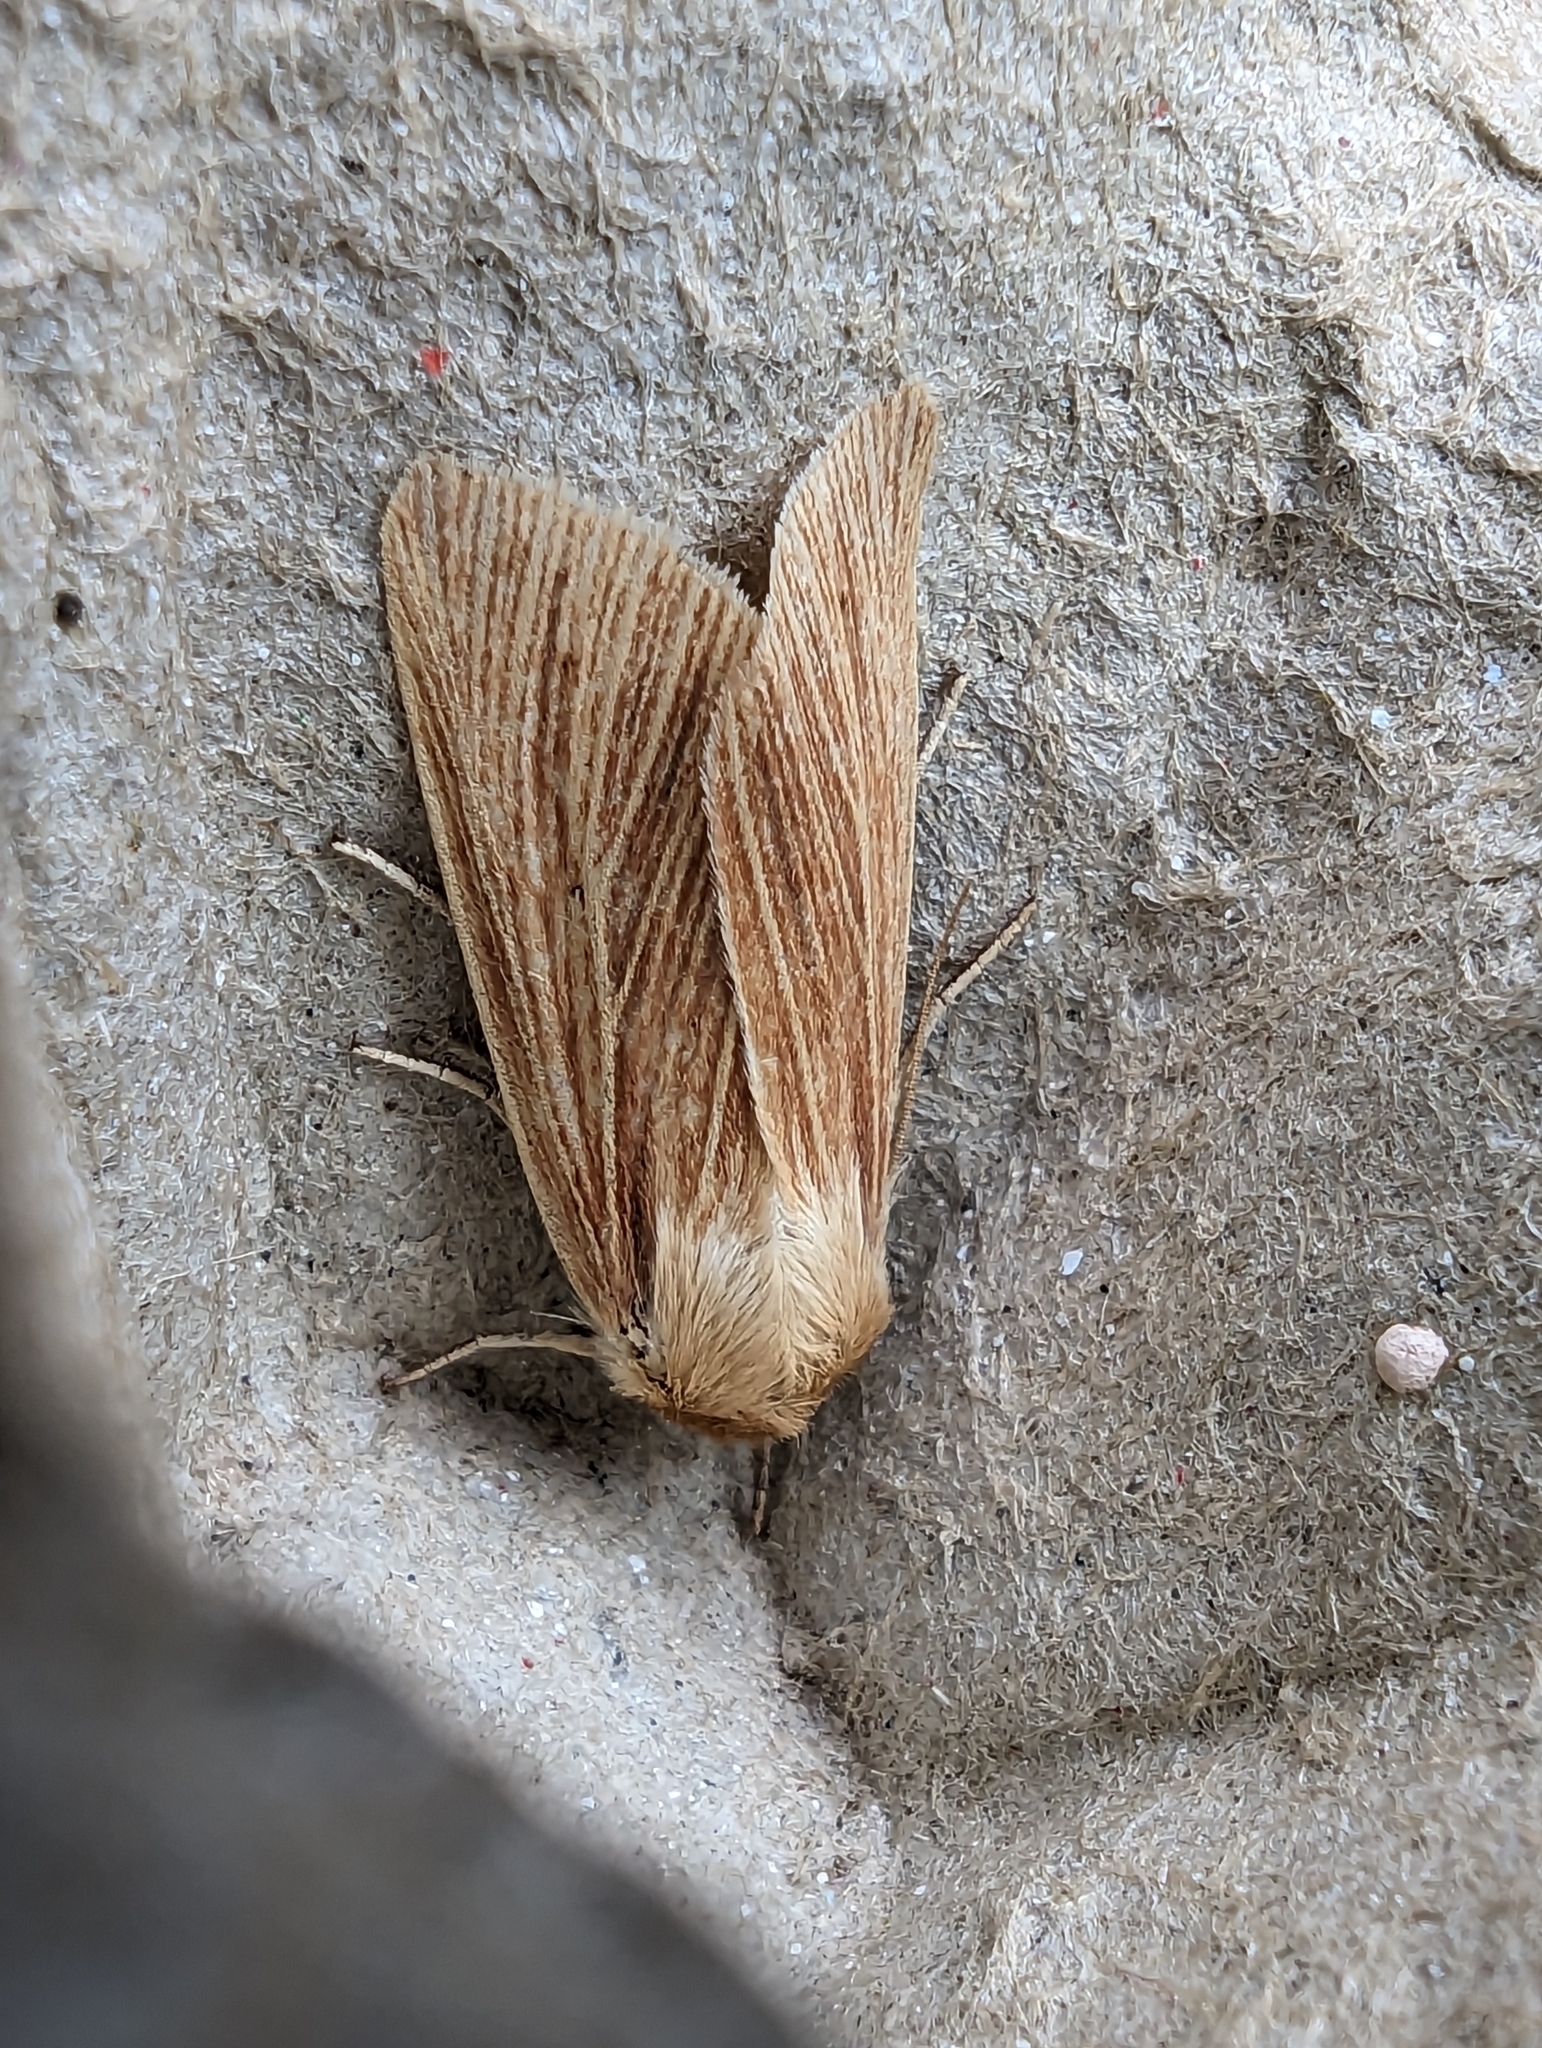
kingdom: Animalia
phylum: Arthropoda
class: Insecta
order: Lepidoptera
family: Noctuidae
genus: Mythimna
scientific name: Mythimna pallens
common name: Common wainscot
